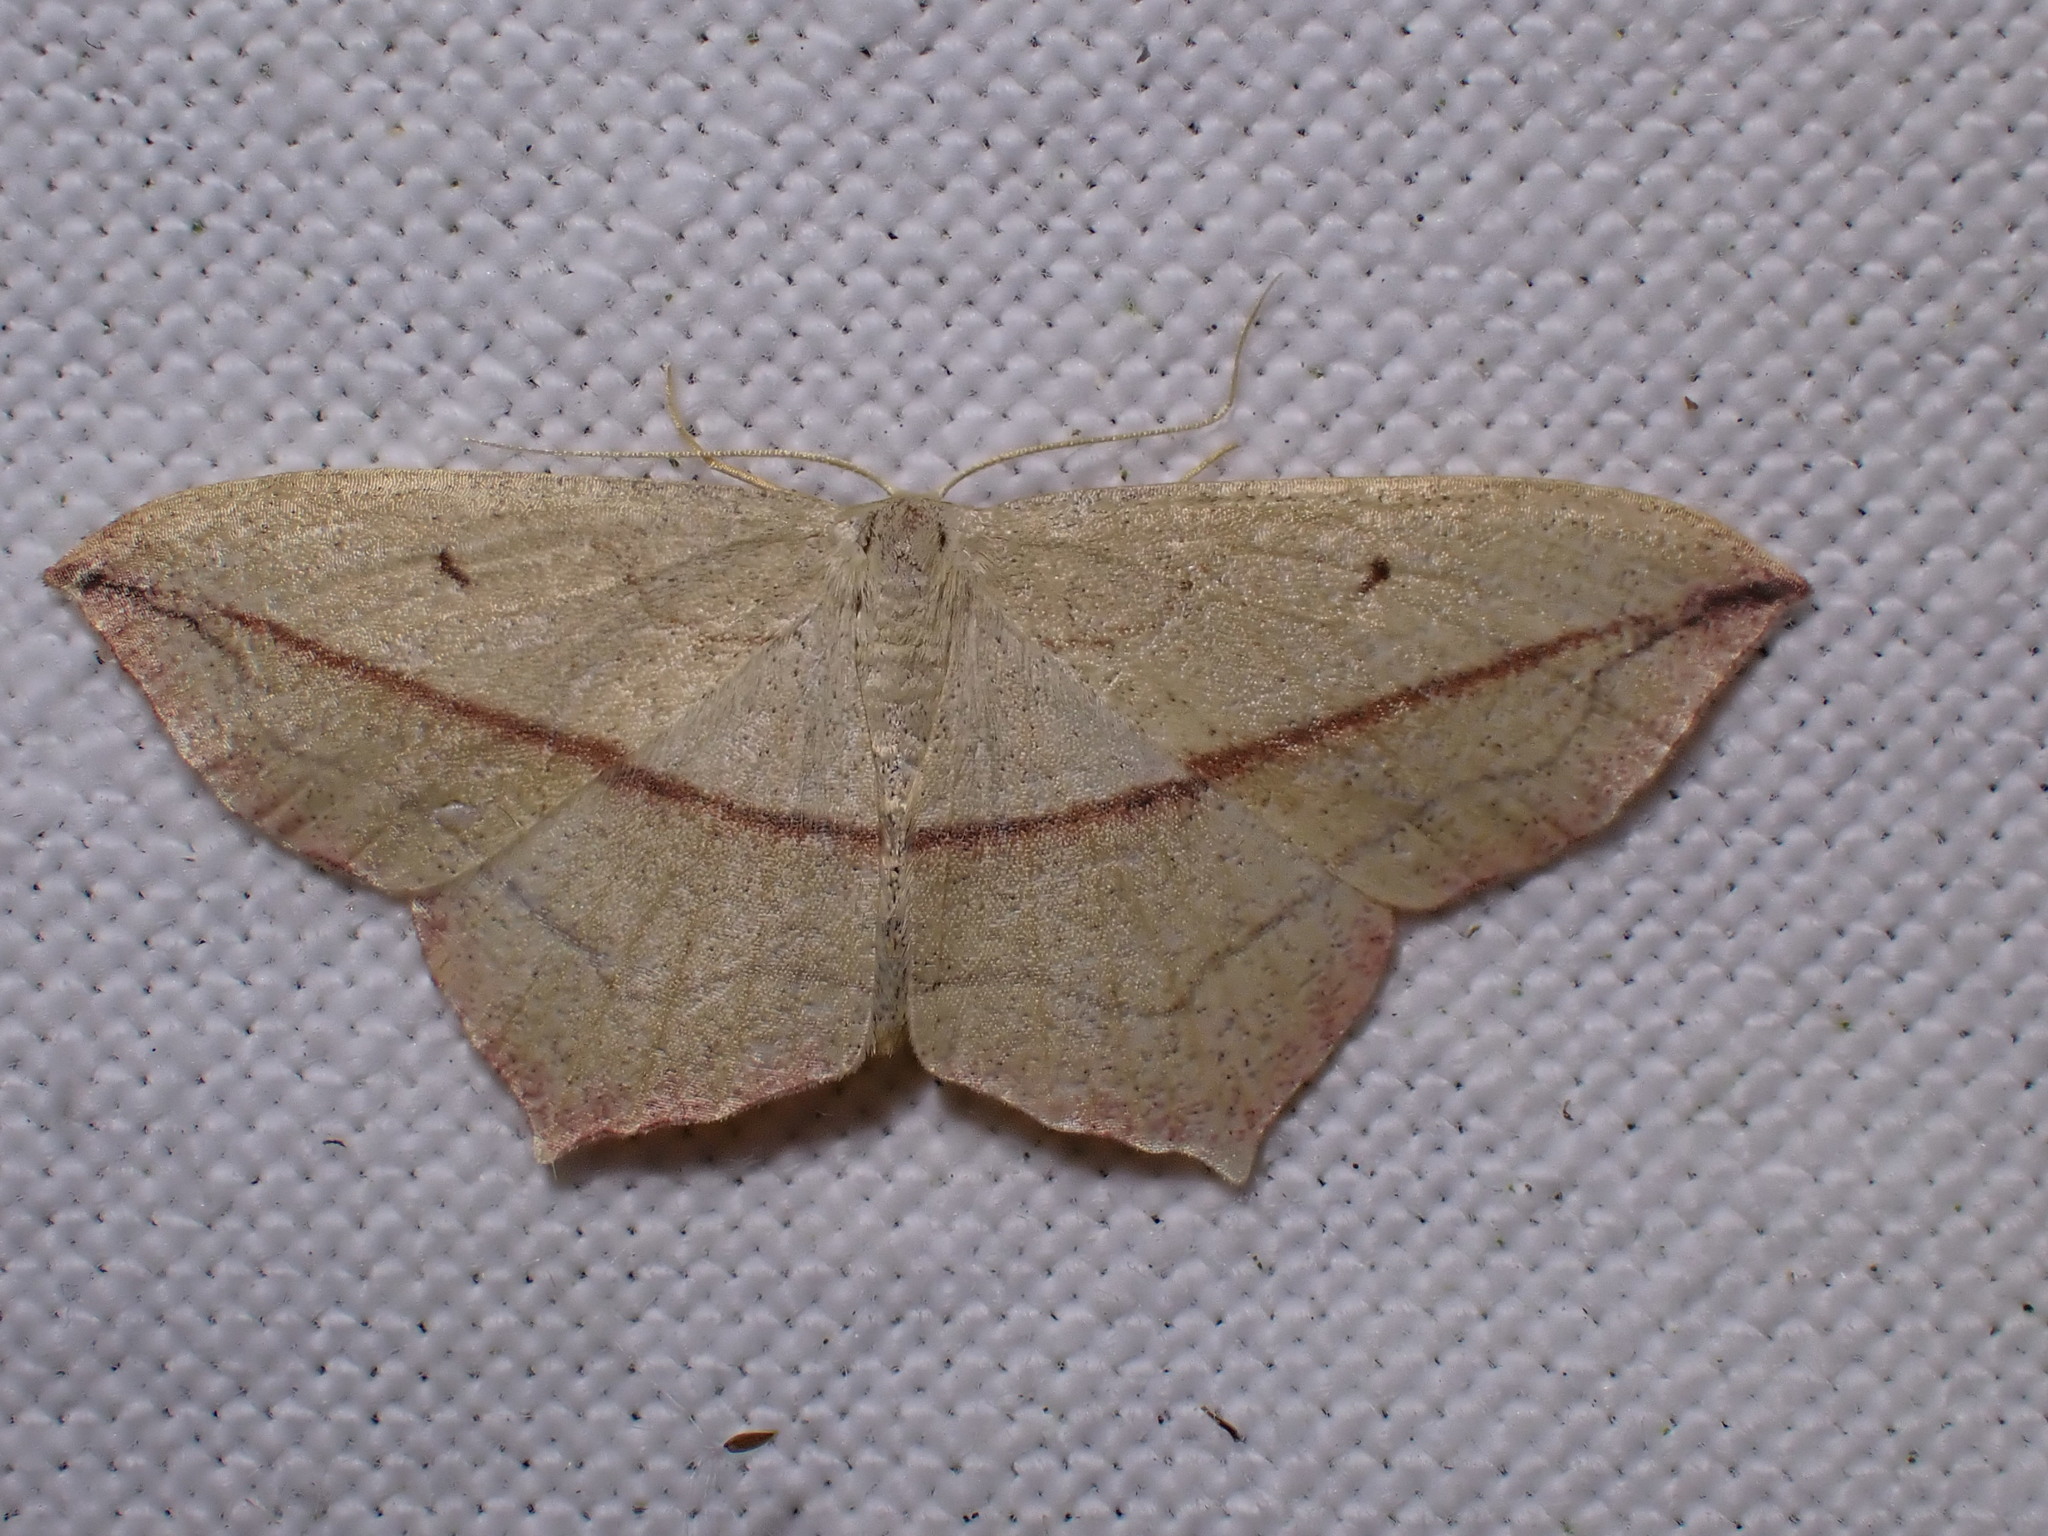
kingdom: Animalia
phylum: Arthropoda
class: Insecta
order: Lepidoptera
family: Geometridae
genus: Timandra
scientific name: Timandra comae
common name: Blood-vein
